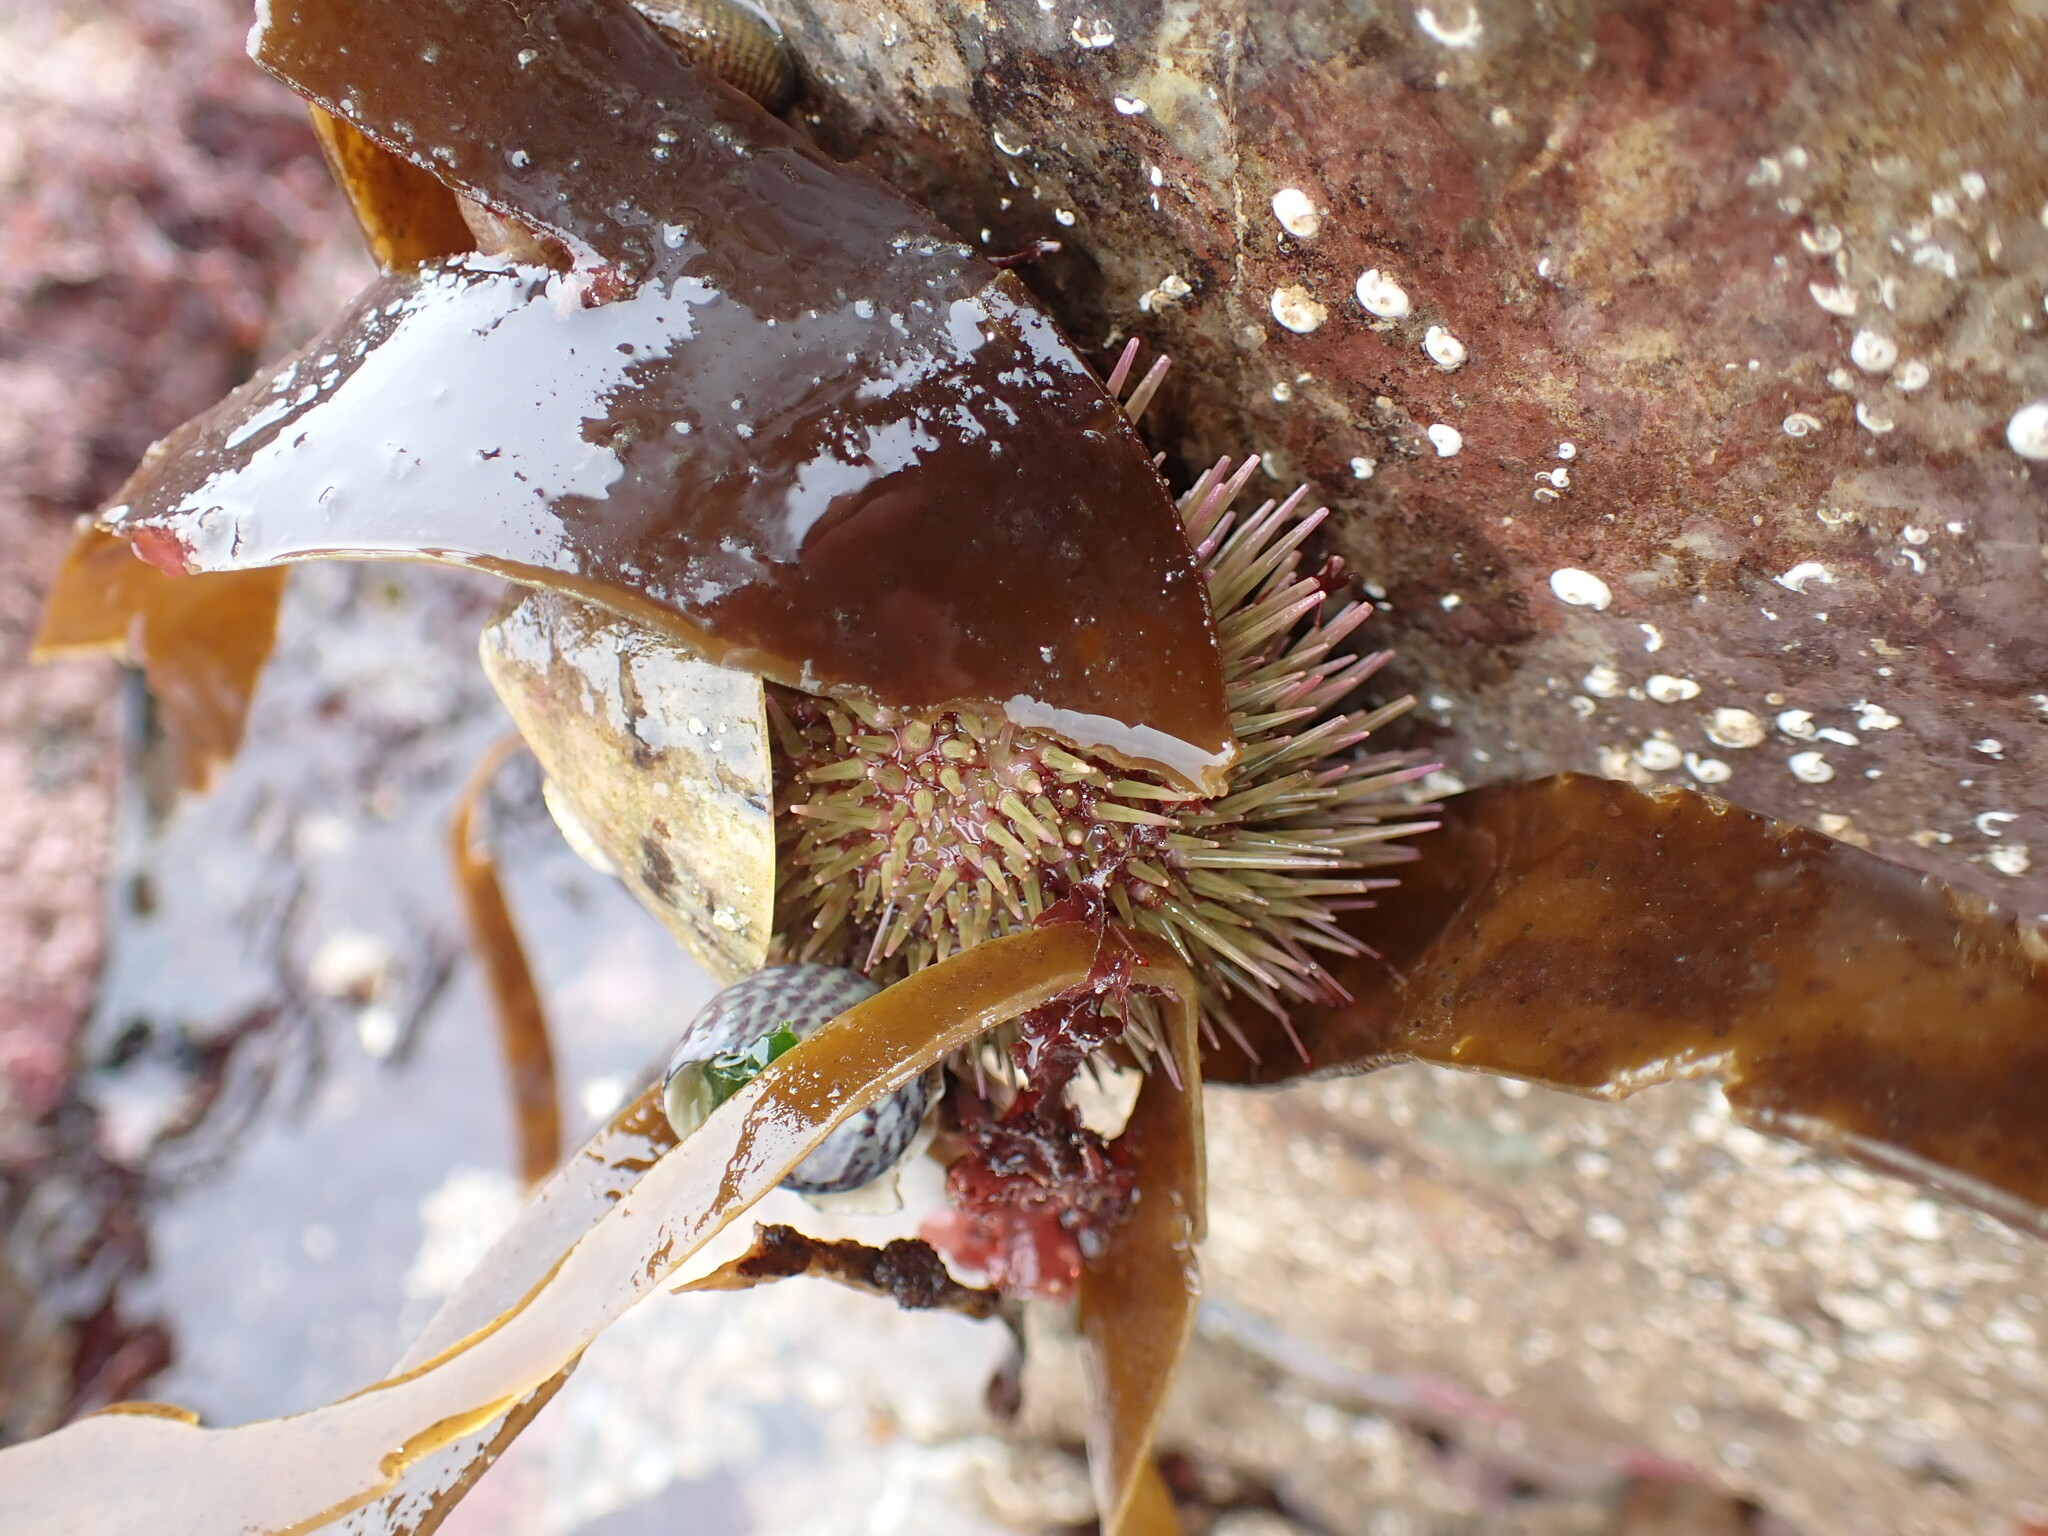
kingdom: Animalia
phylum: Echinodermata
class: Echinoidea
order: Camarodonta
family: Parechinidae
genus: Psammechinus
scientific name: Psammechinus miliaris
